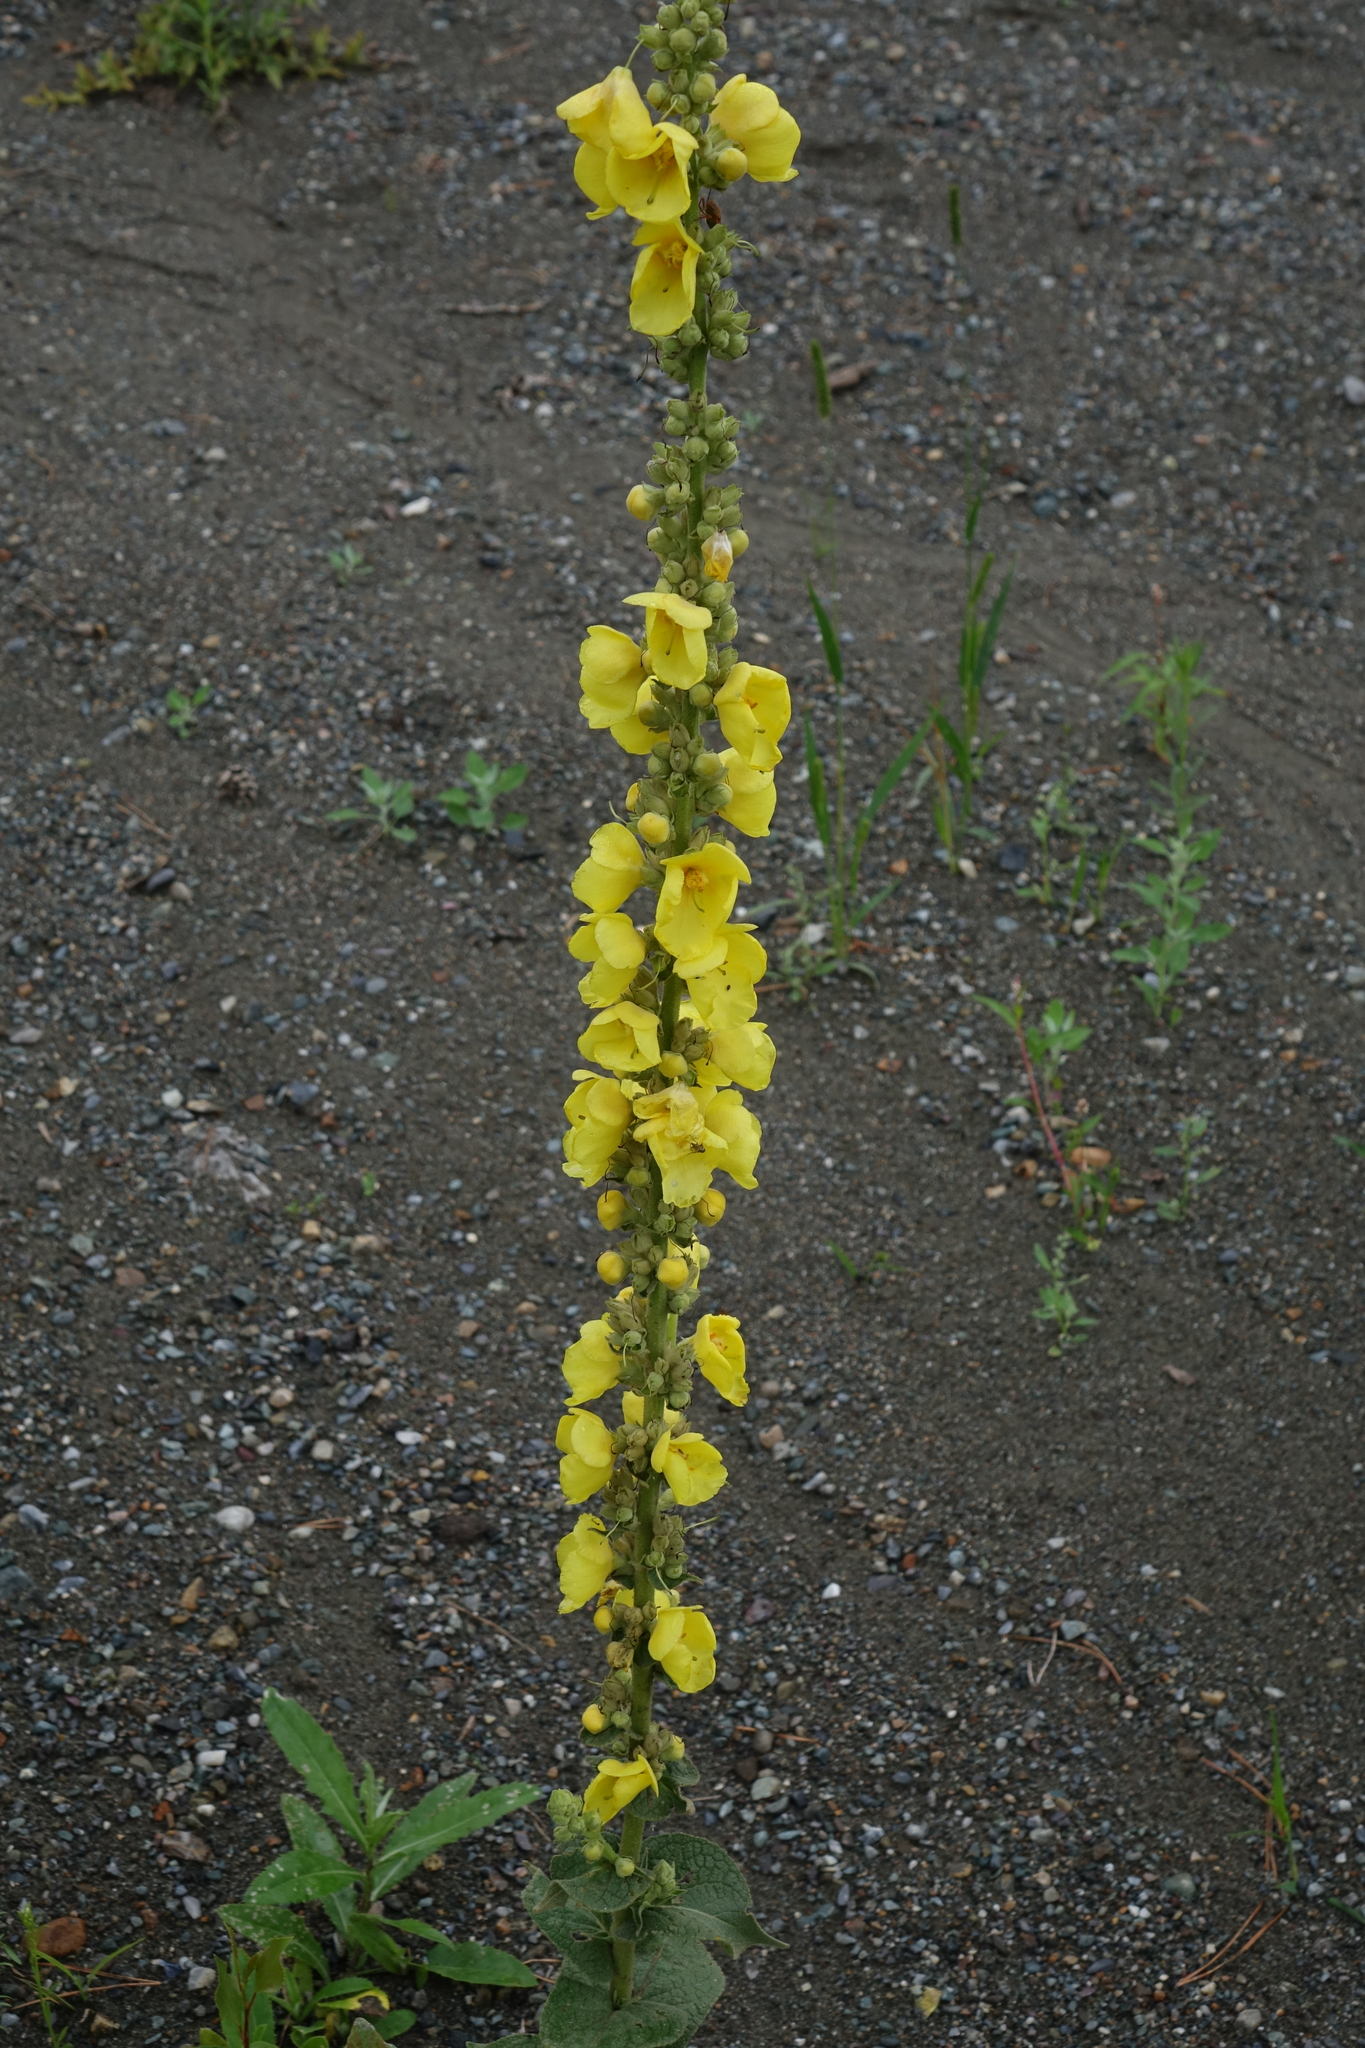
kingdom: Plantae
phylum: Tracheophyta
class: Magnoliopsida
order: Lamiales
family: Scrophulariaceae
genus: Verbascum
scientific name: Verbascum phlomoides
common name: Orange mullein
